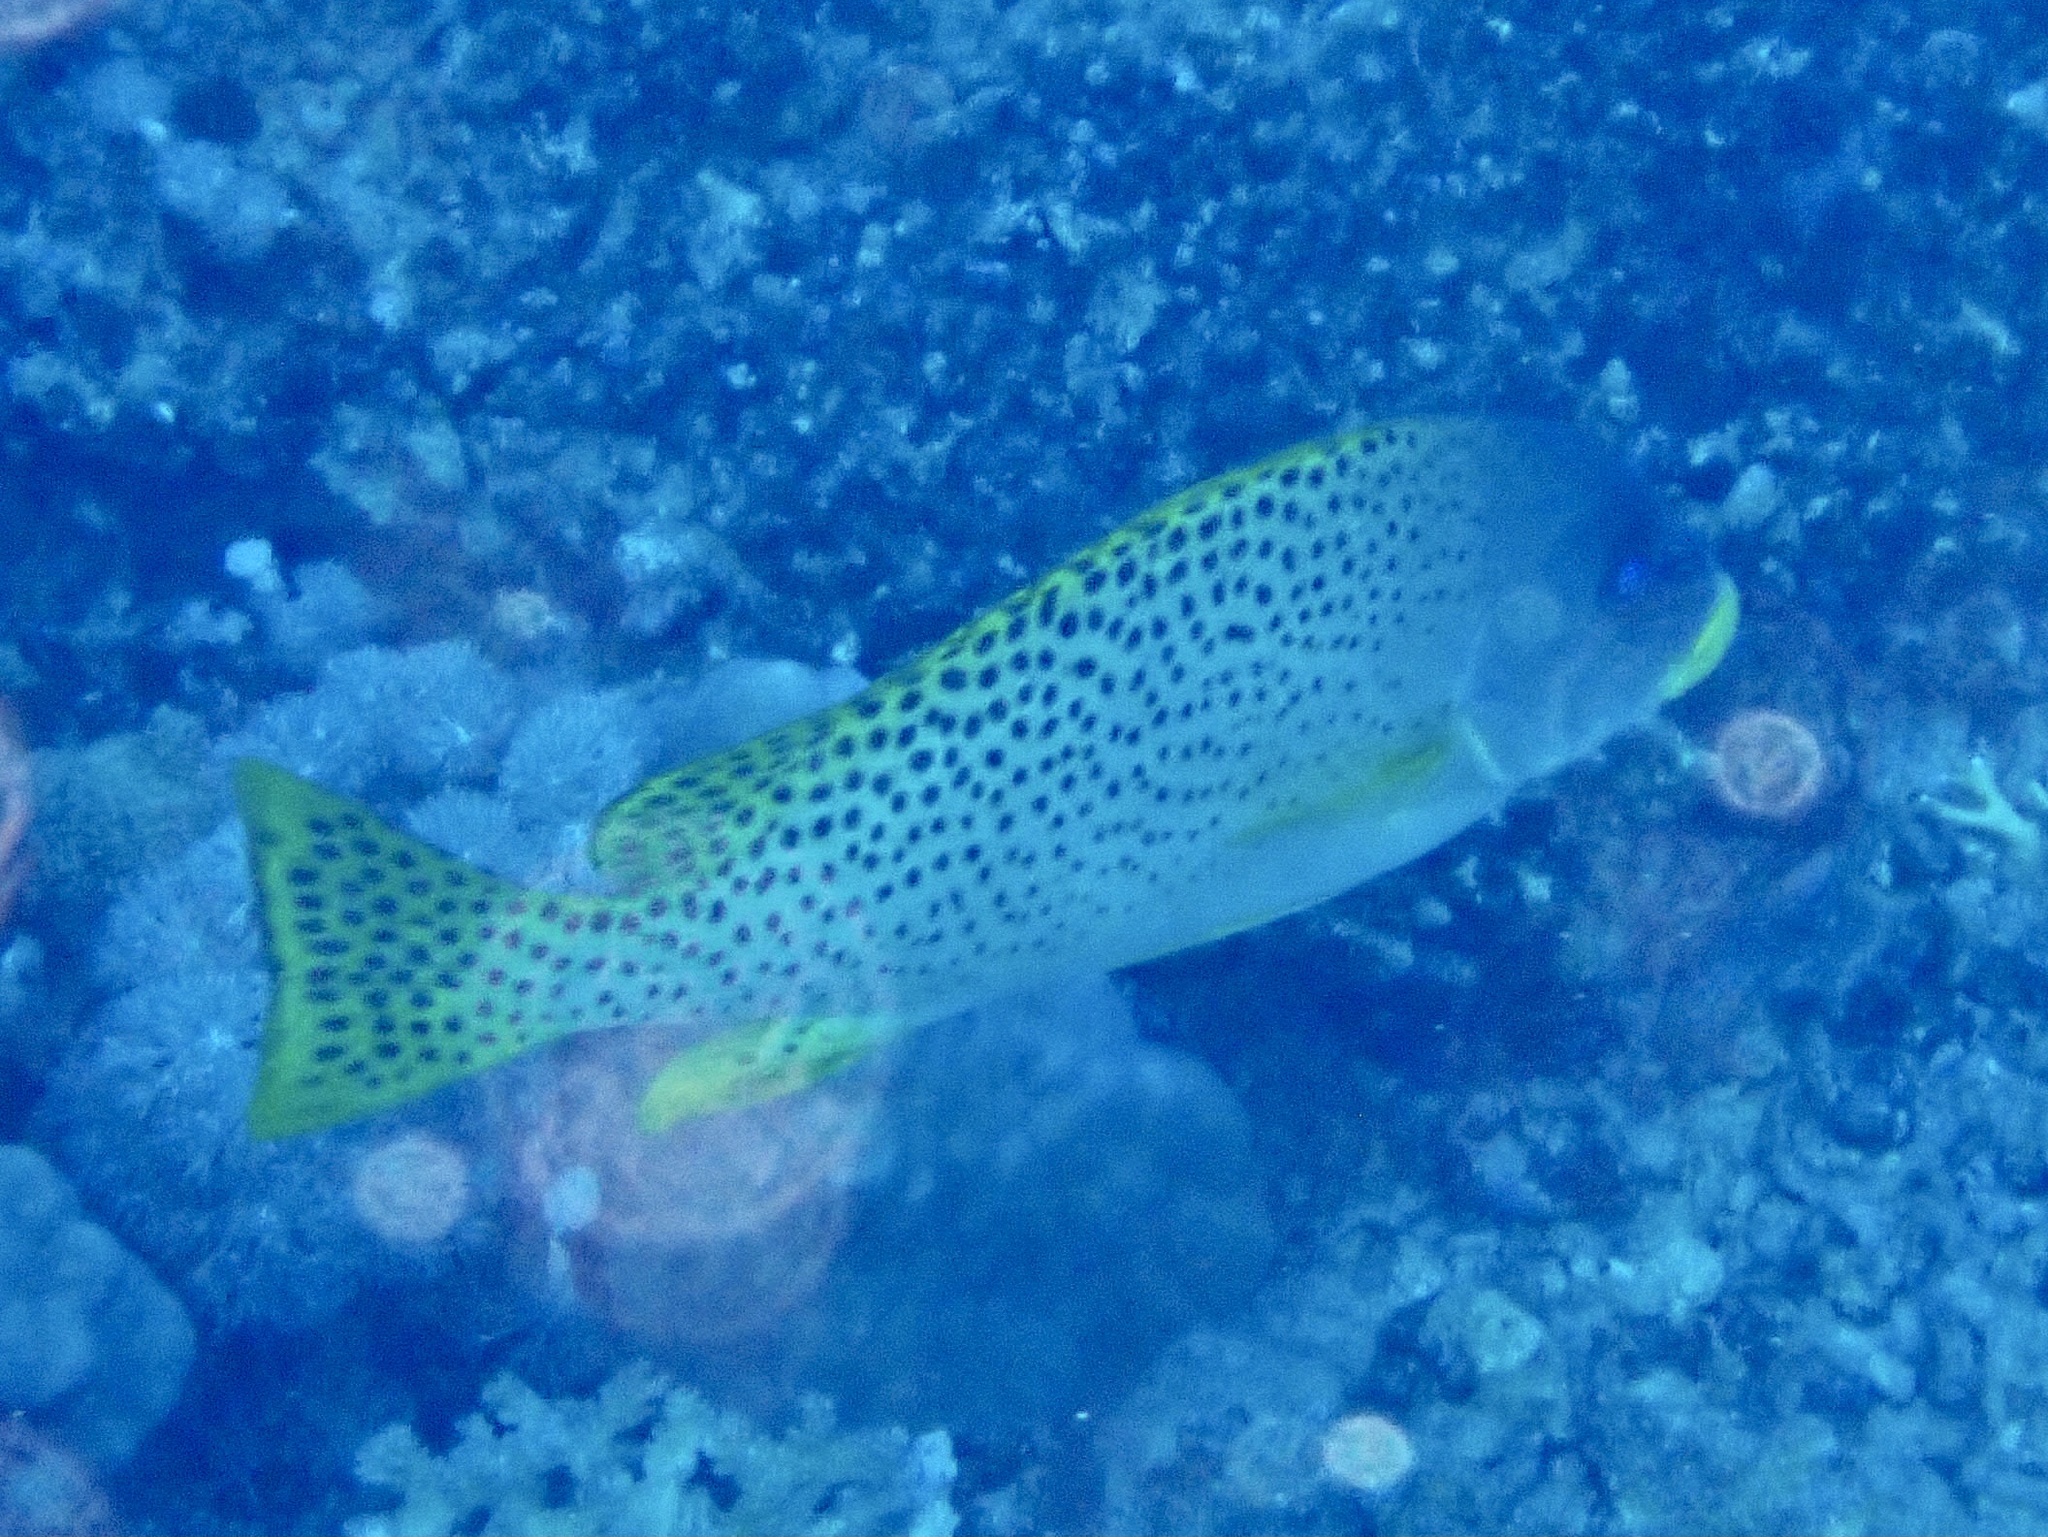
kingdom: Animalia
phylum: Chordata
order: Perciformes
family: Haemulidae
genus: Plectorhinchus
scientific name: Plectorhinchus gaterinus
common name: Blackspotted rubberlip
